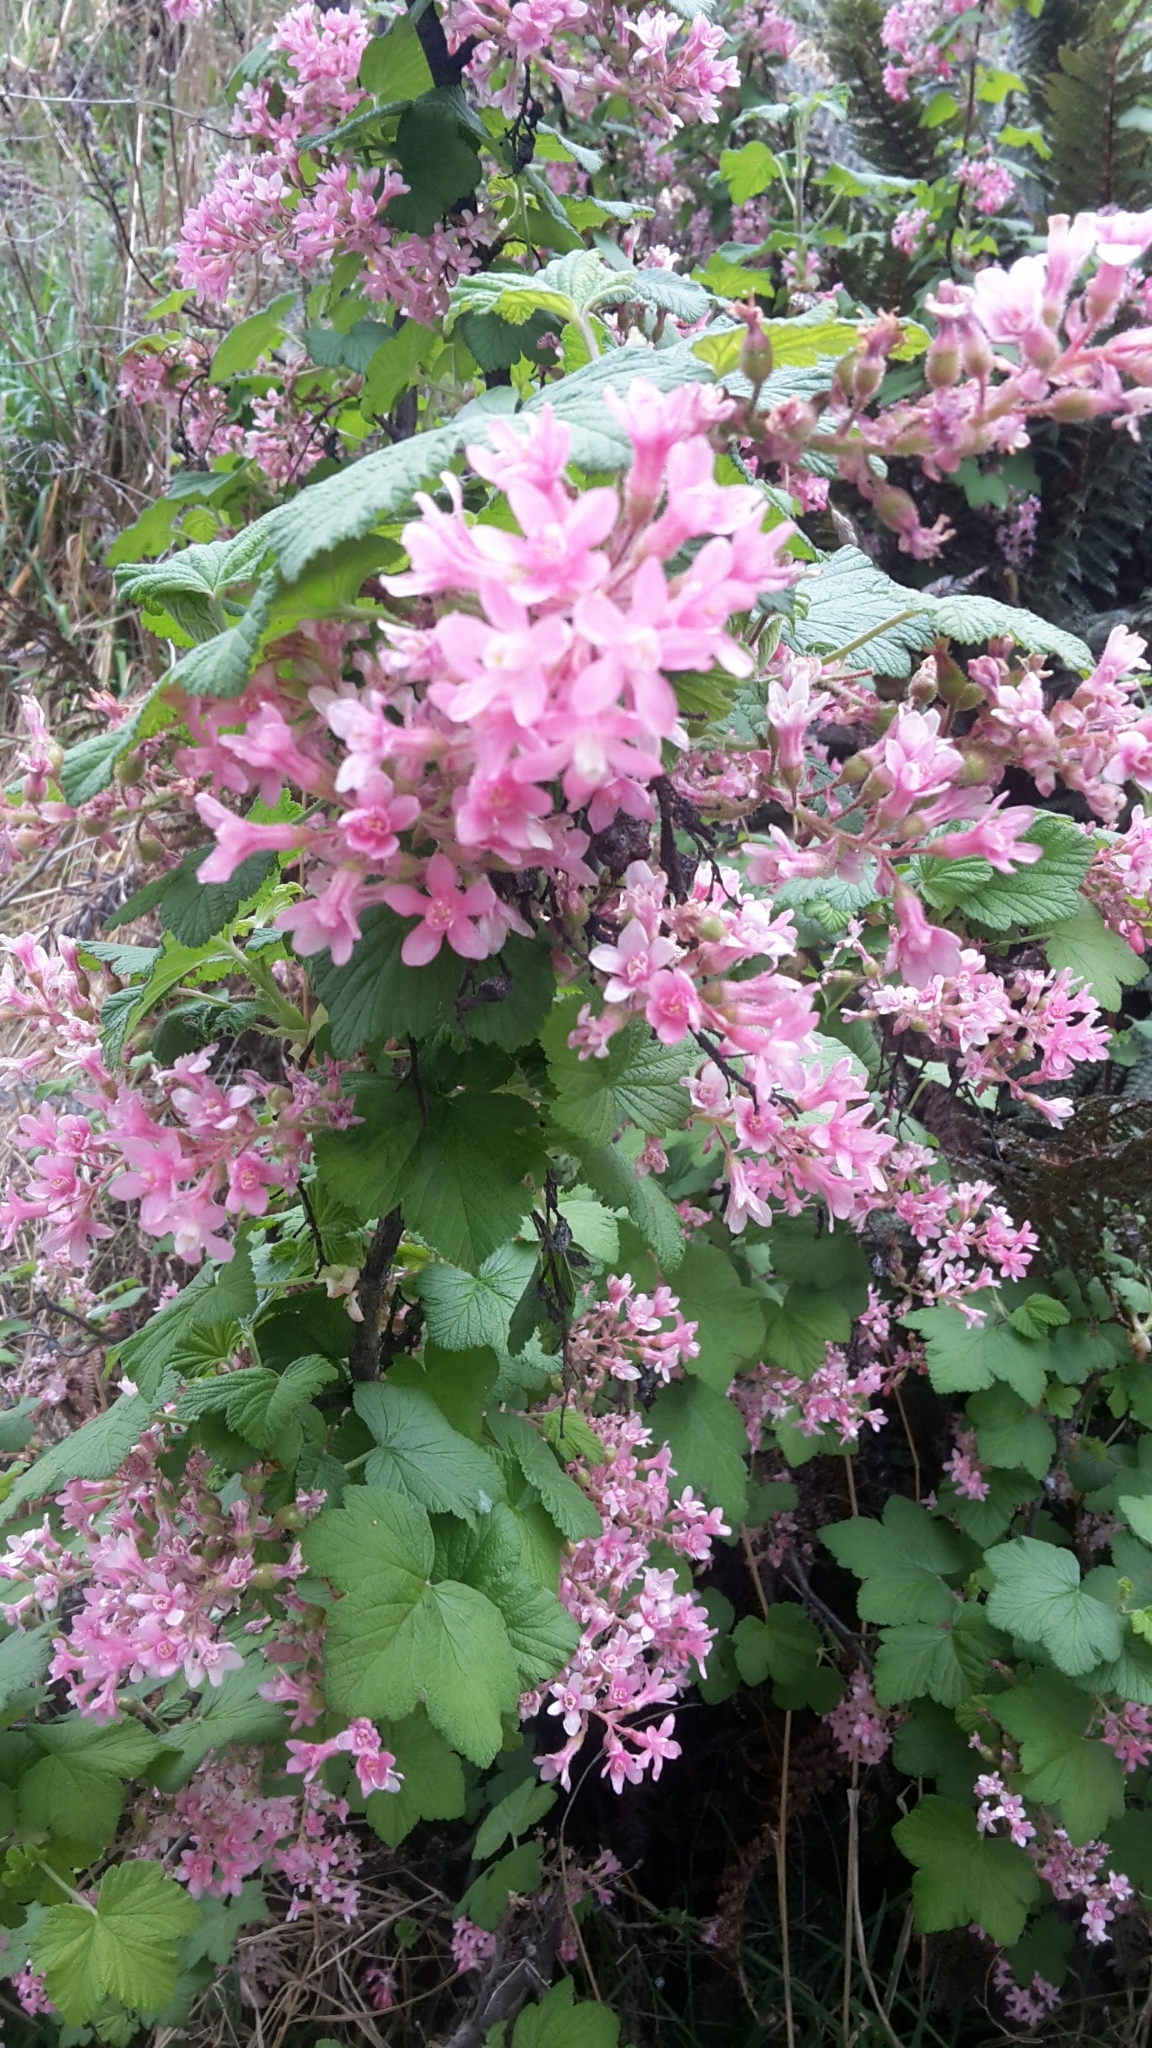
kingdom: Plantae
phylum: Tracheophyta
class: Magnoliopsida
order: Saxifragales
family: Grossulariaceae
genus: Ribes
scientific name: Ribes sanguineum
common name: Flowering currant
